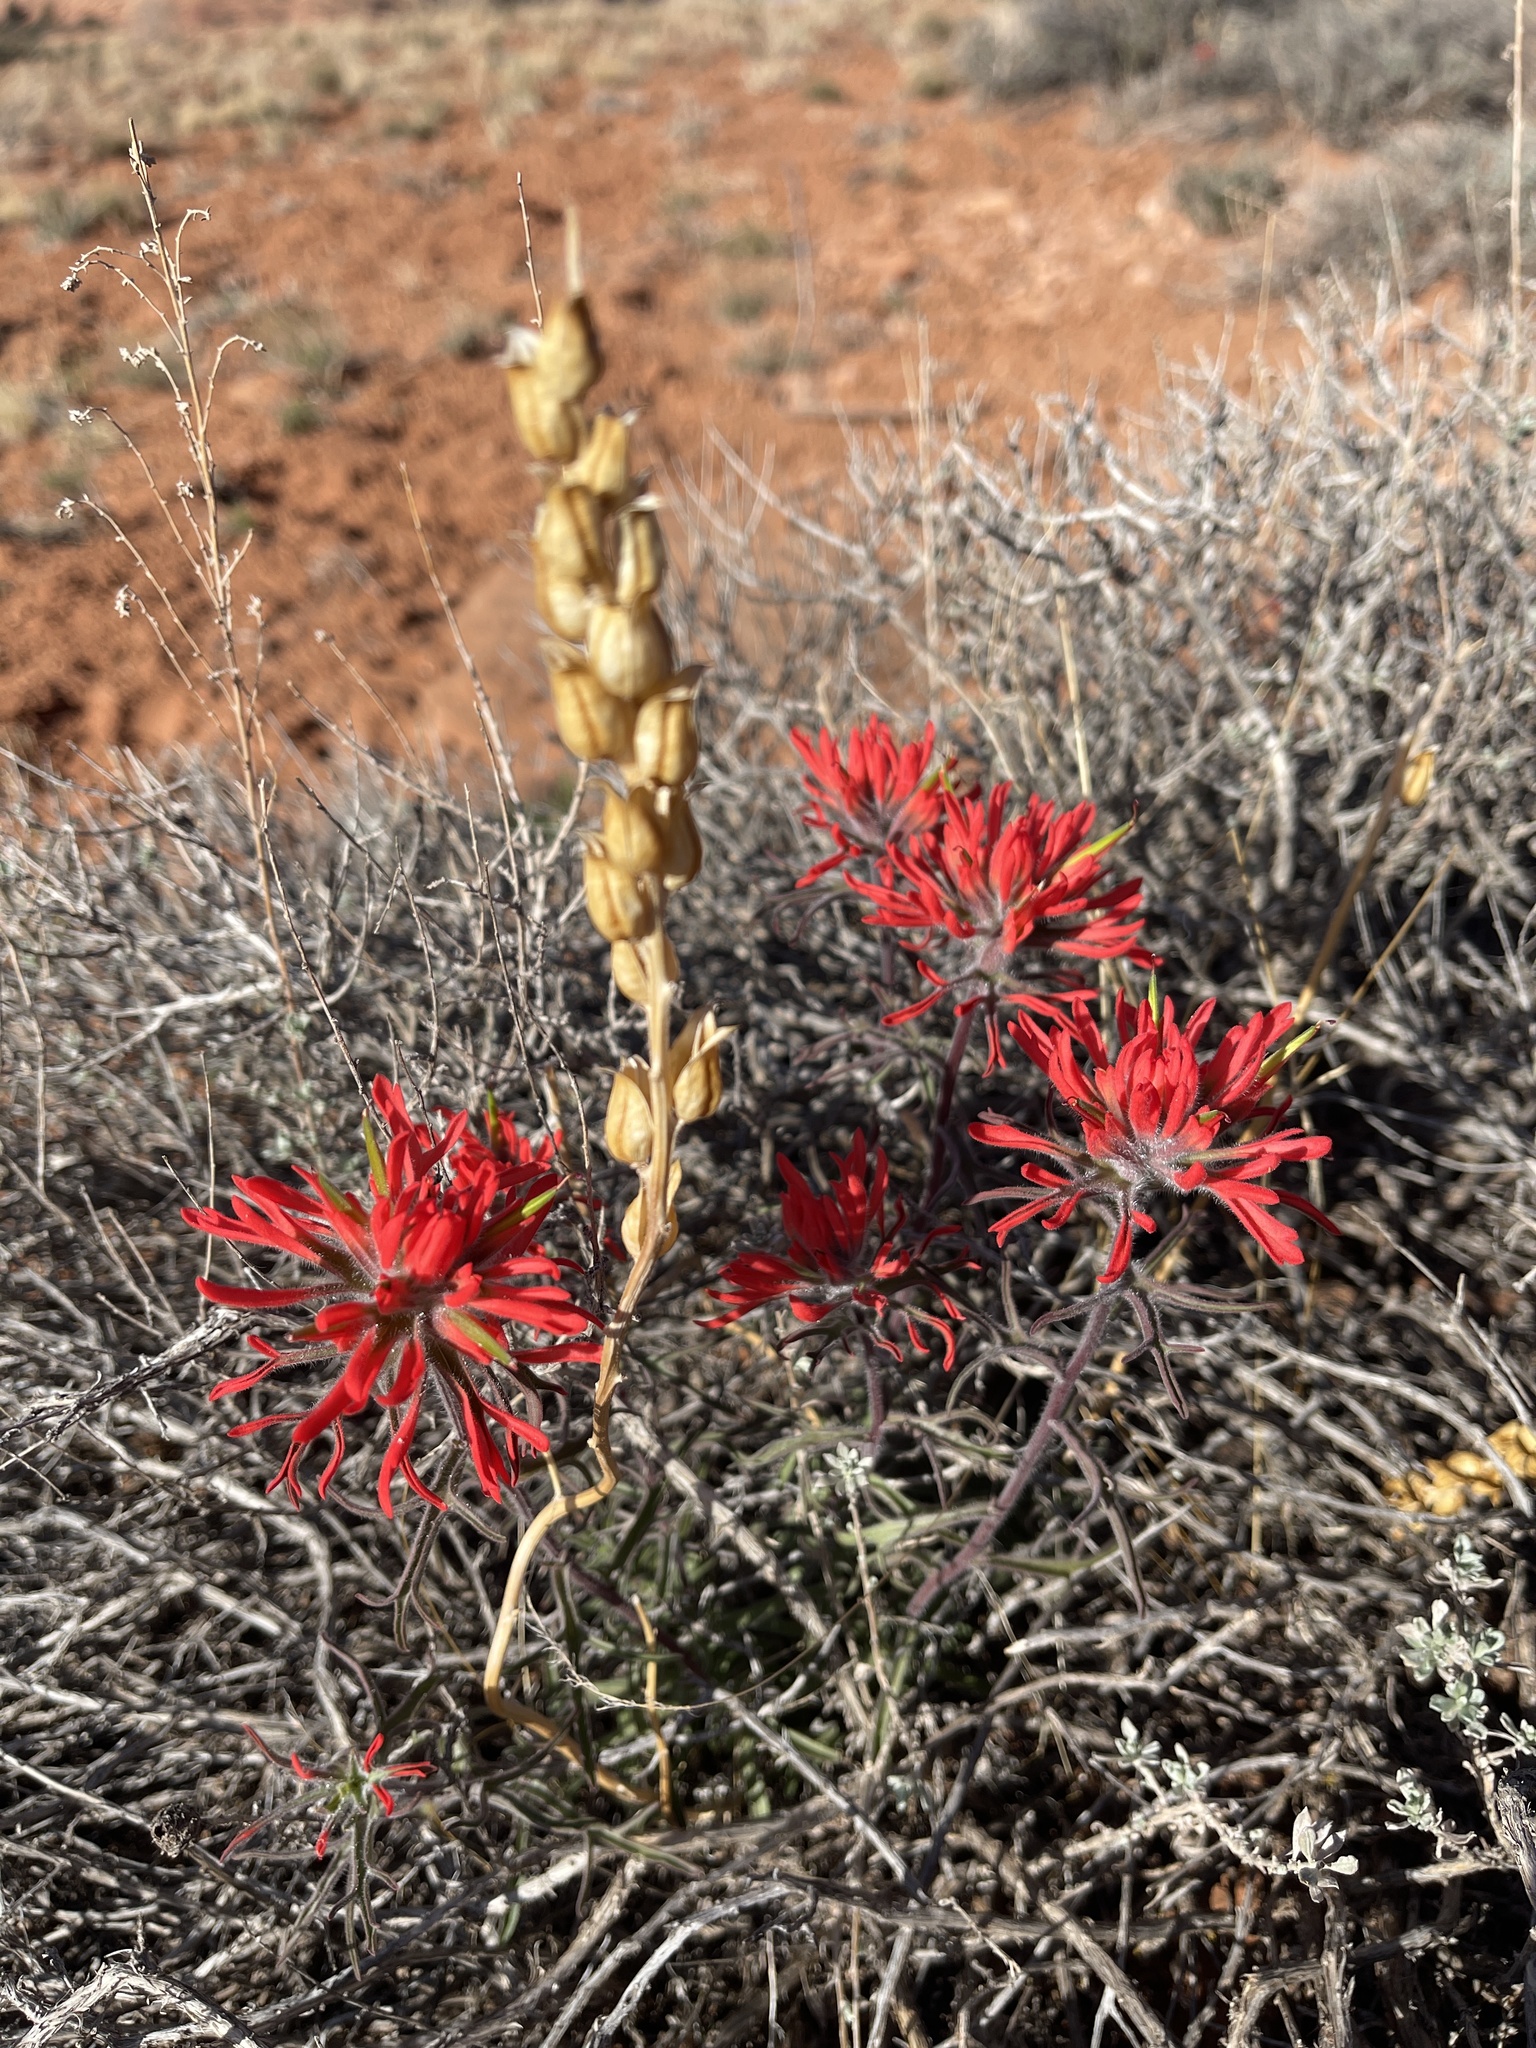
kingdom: Plantae
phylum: Tracheophyta
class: Magnoliopsida
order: Lamiales
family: Orobanchaceae
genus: Castilleja
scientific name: Castilleja chromosa
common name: Desert paintbrush
